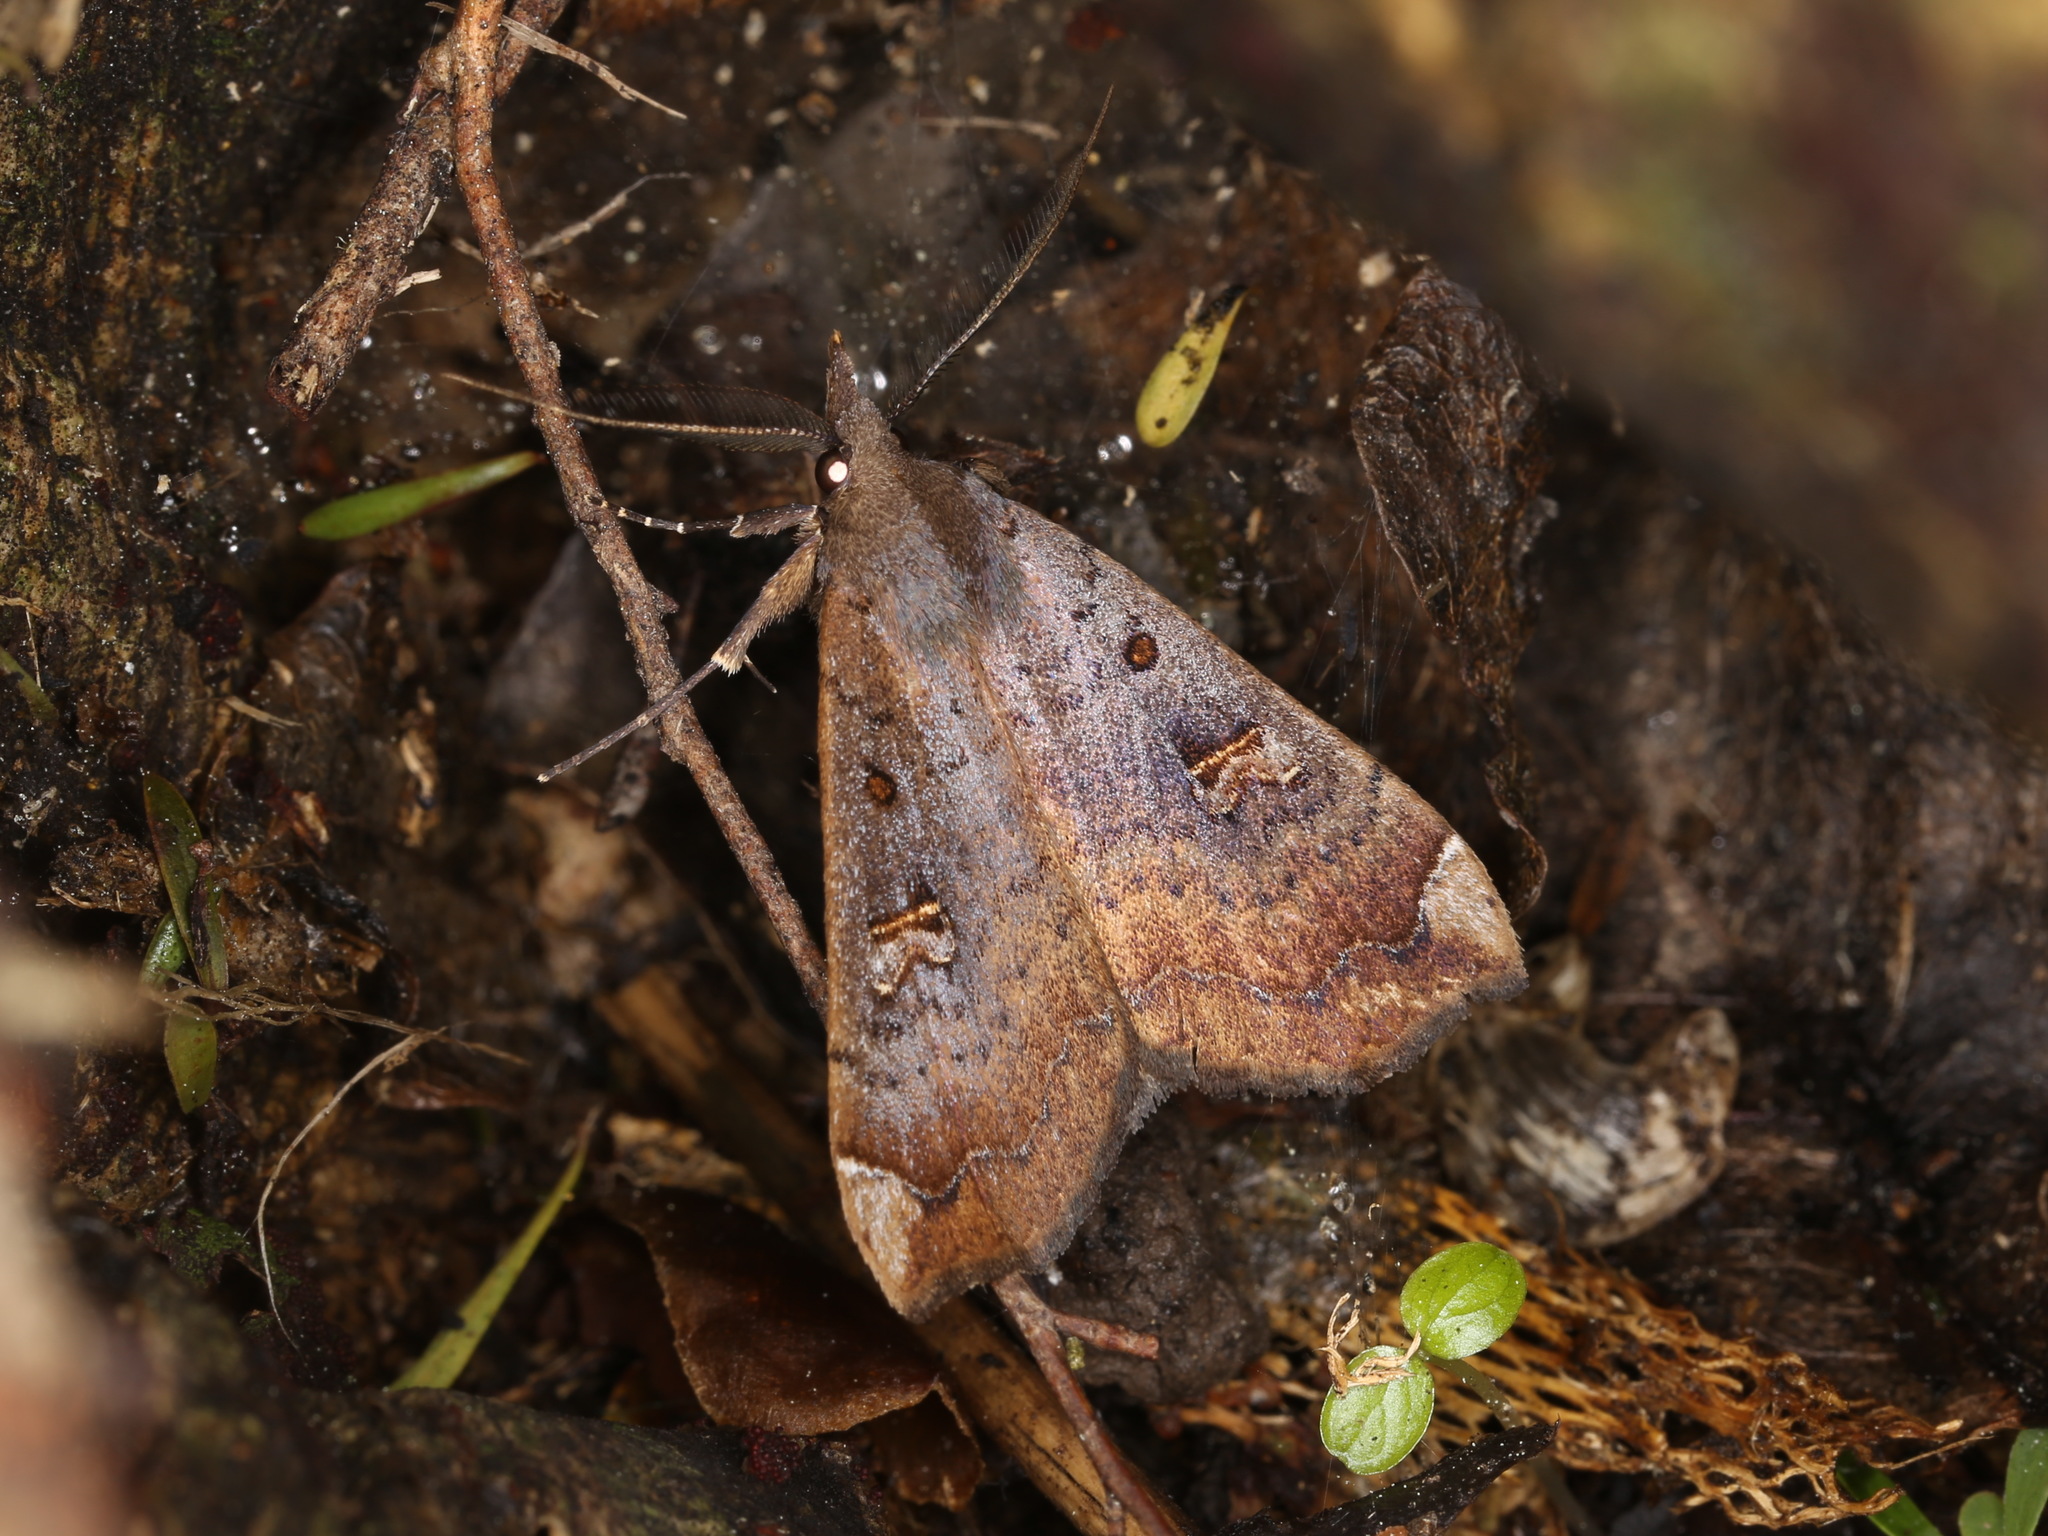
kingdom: Animalia
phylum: Arthropoda
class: Insecta
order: Lepidoptera
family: Erebidae
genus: Rhapsa
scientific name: Rhapsa scotosialis
